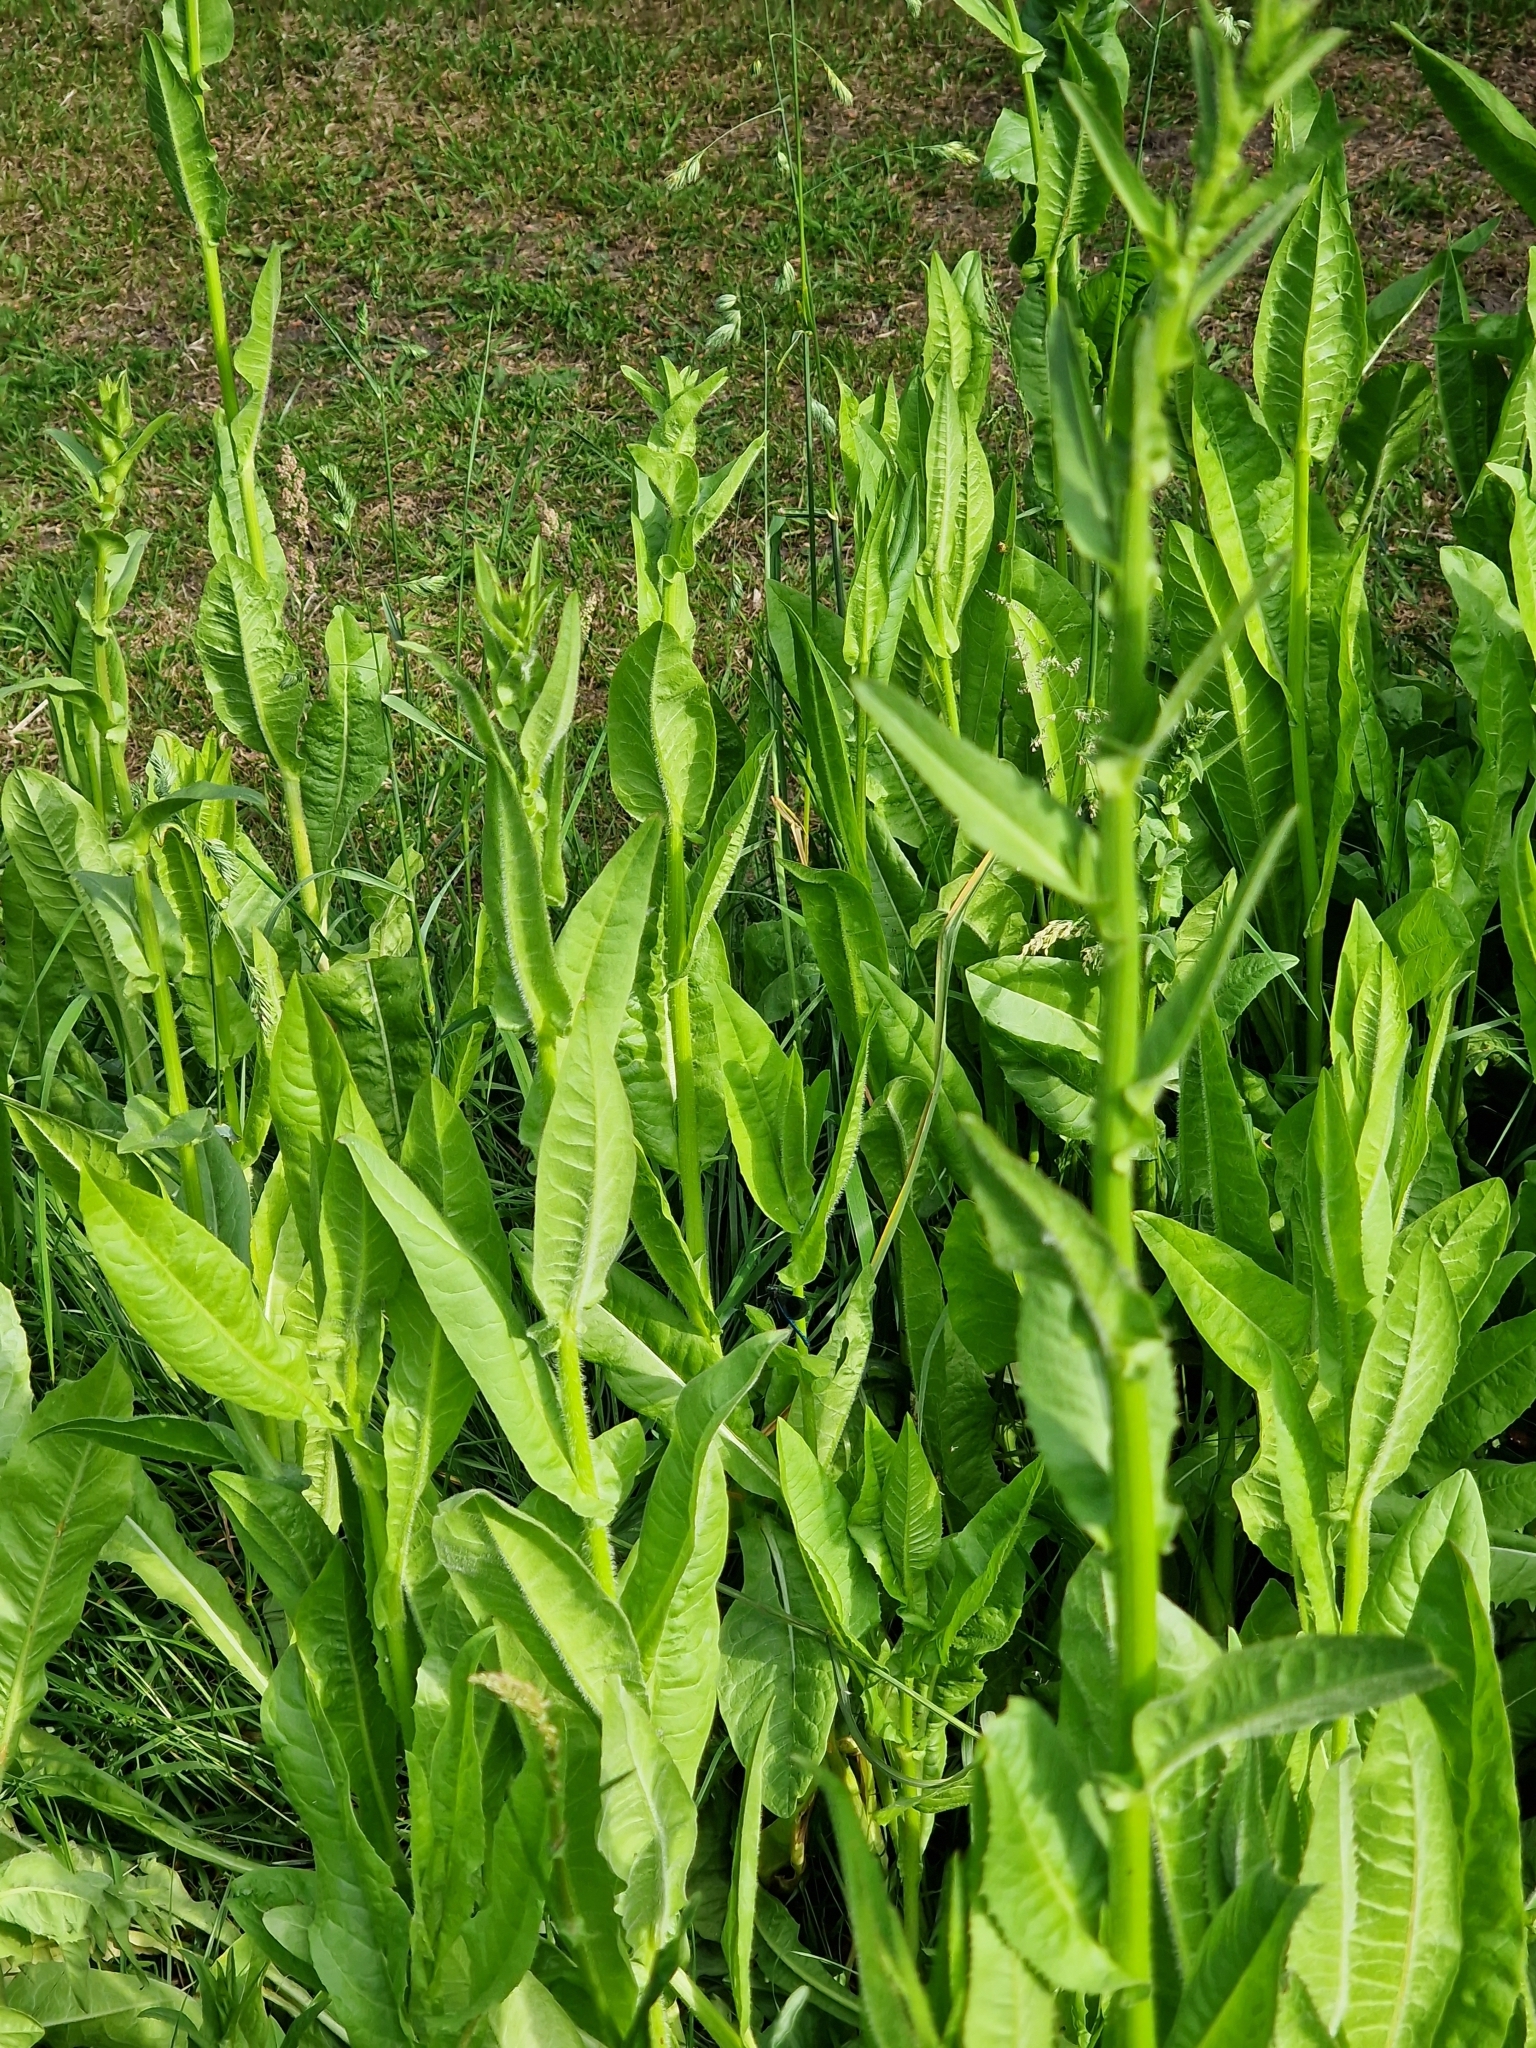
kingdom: Animalia
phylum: Arthropoda
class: Insecta
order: Odonata
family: Calopterygidae
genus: Calopteryx
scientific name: Calopteryx splendens
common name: Banded demoiselle
